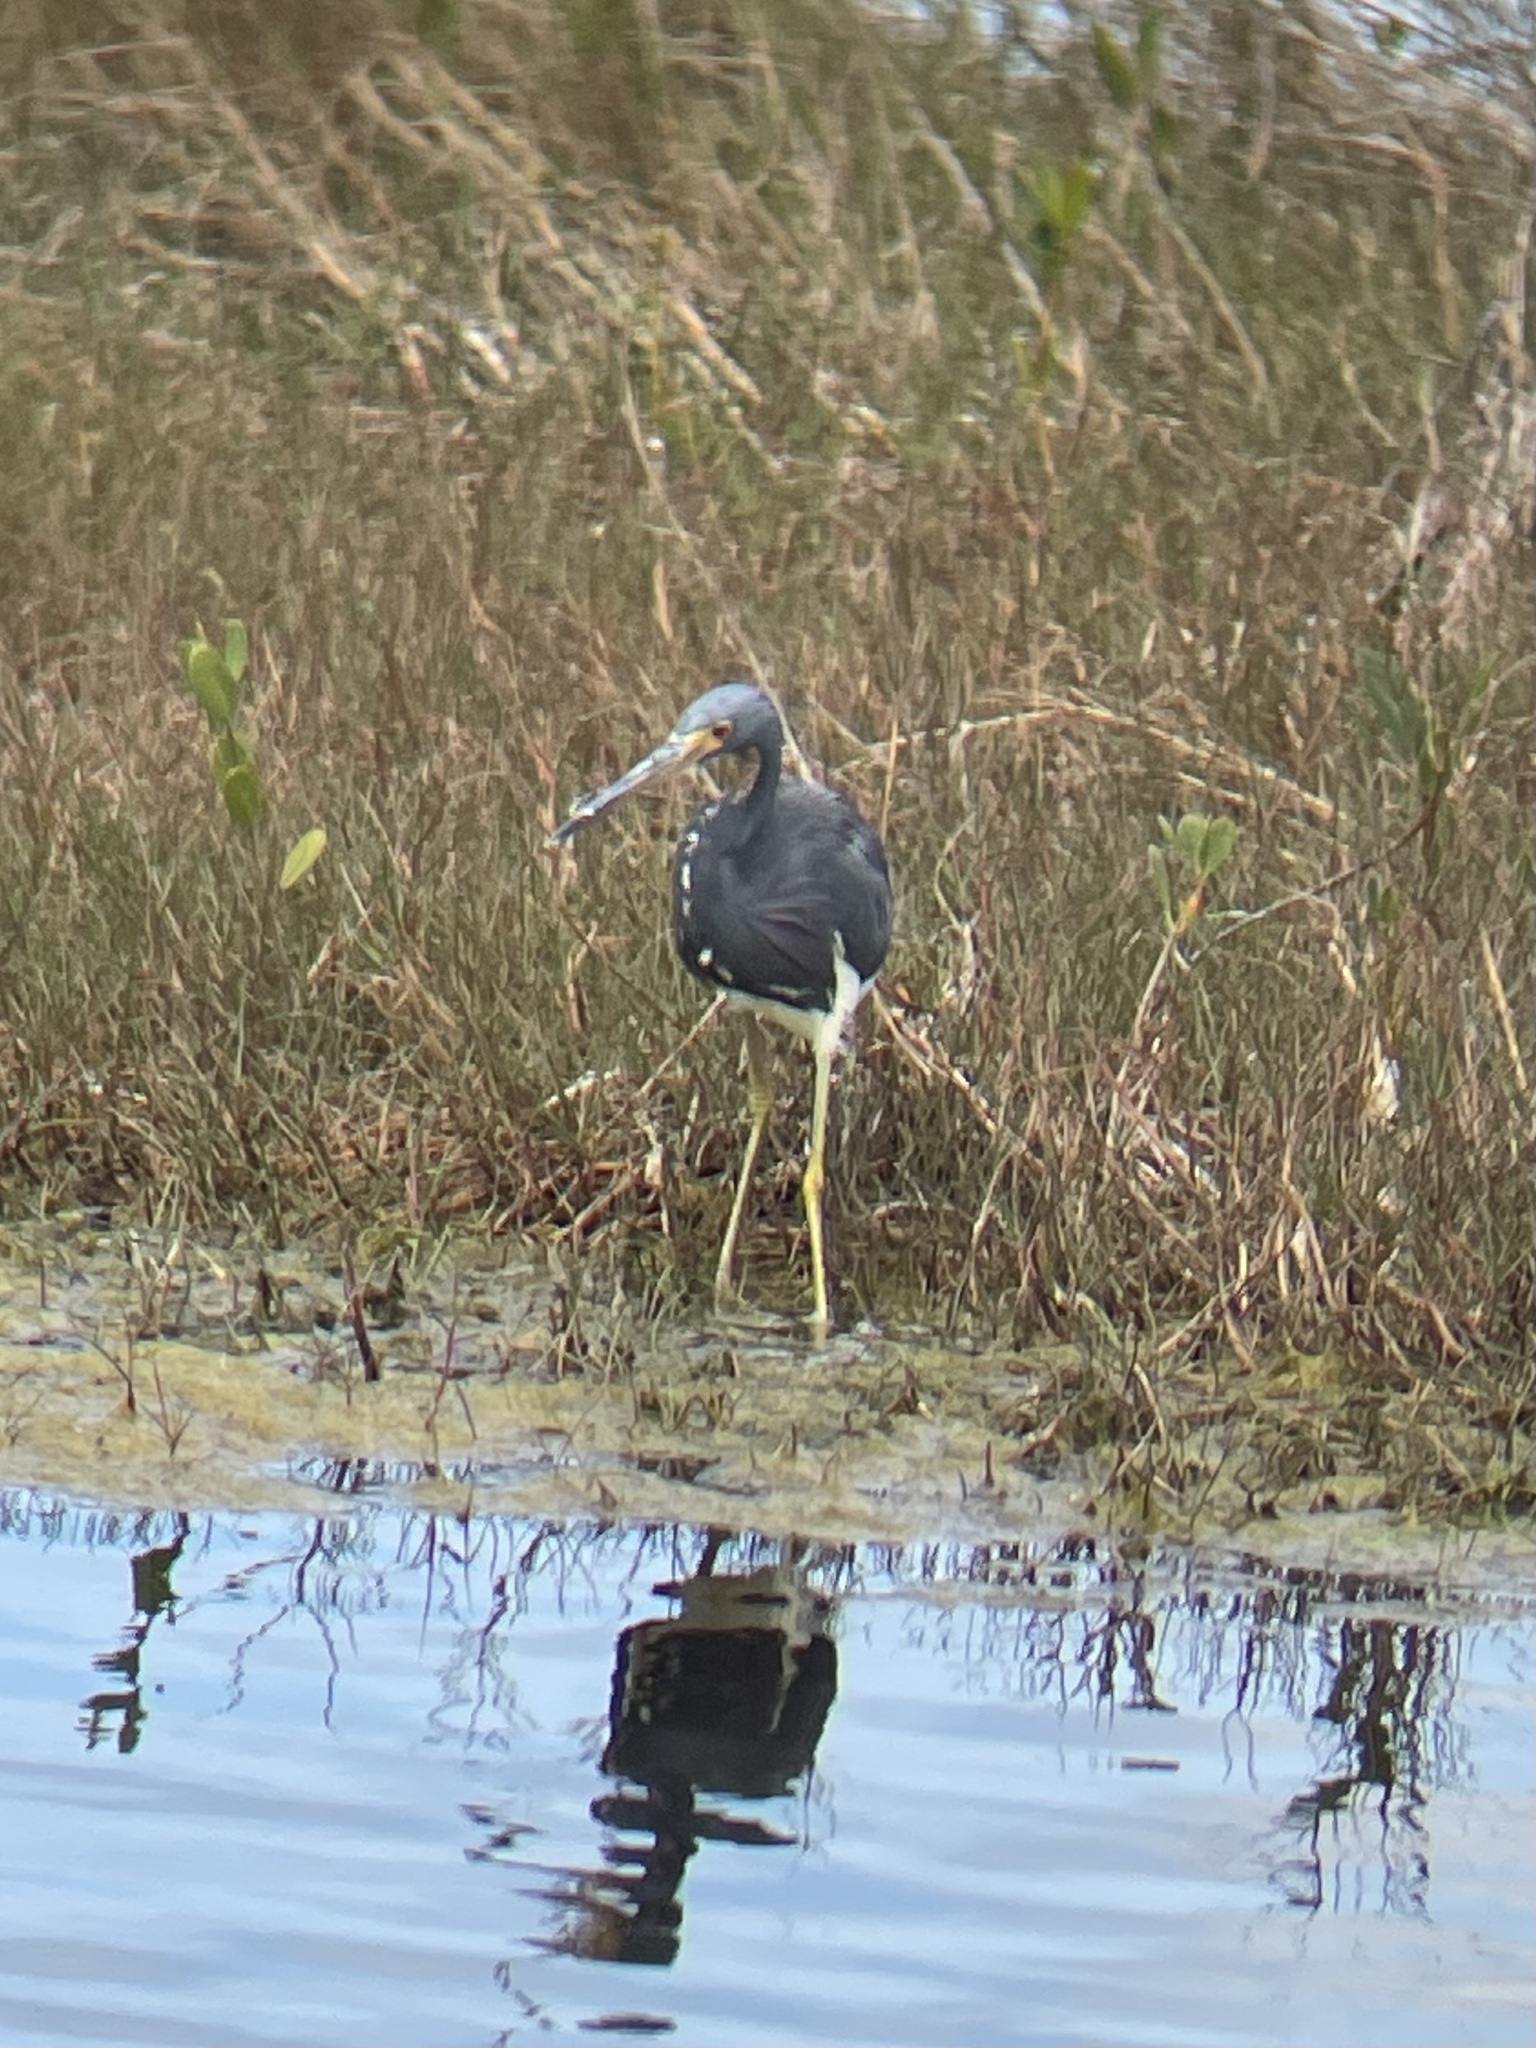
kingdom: Animalia
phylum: Chordata
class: Aves
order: Pelecaniformes
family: Ardeidae
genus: Egretta
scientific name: Egretta tricolor
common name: Tricolored heron
